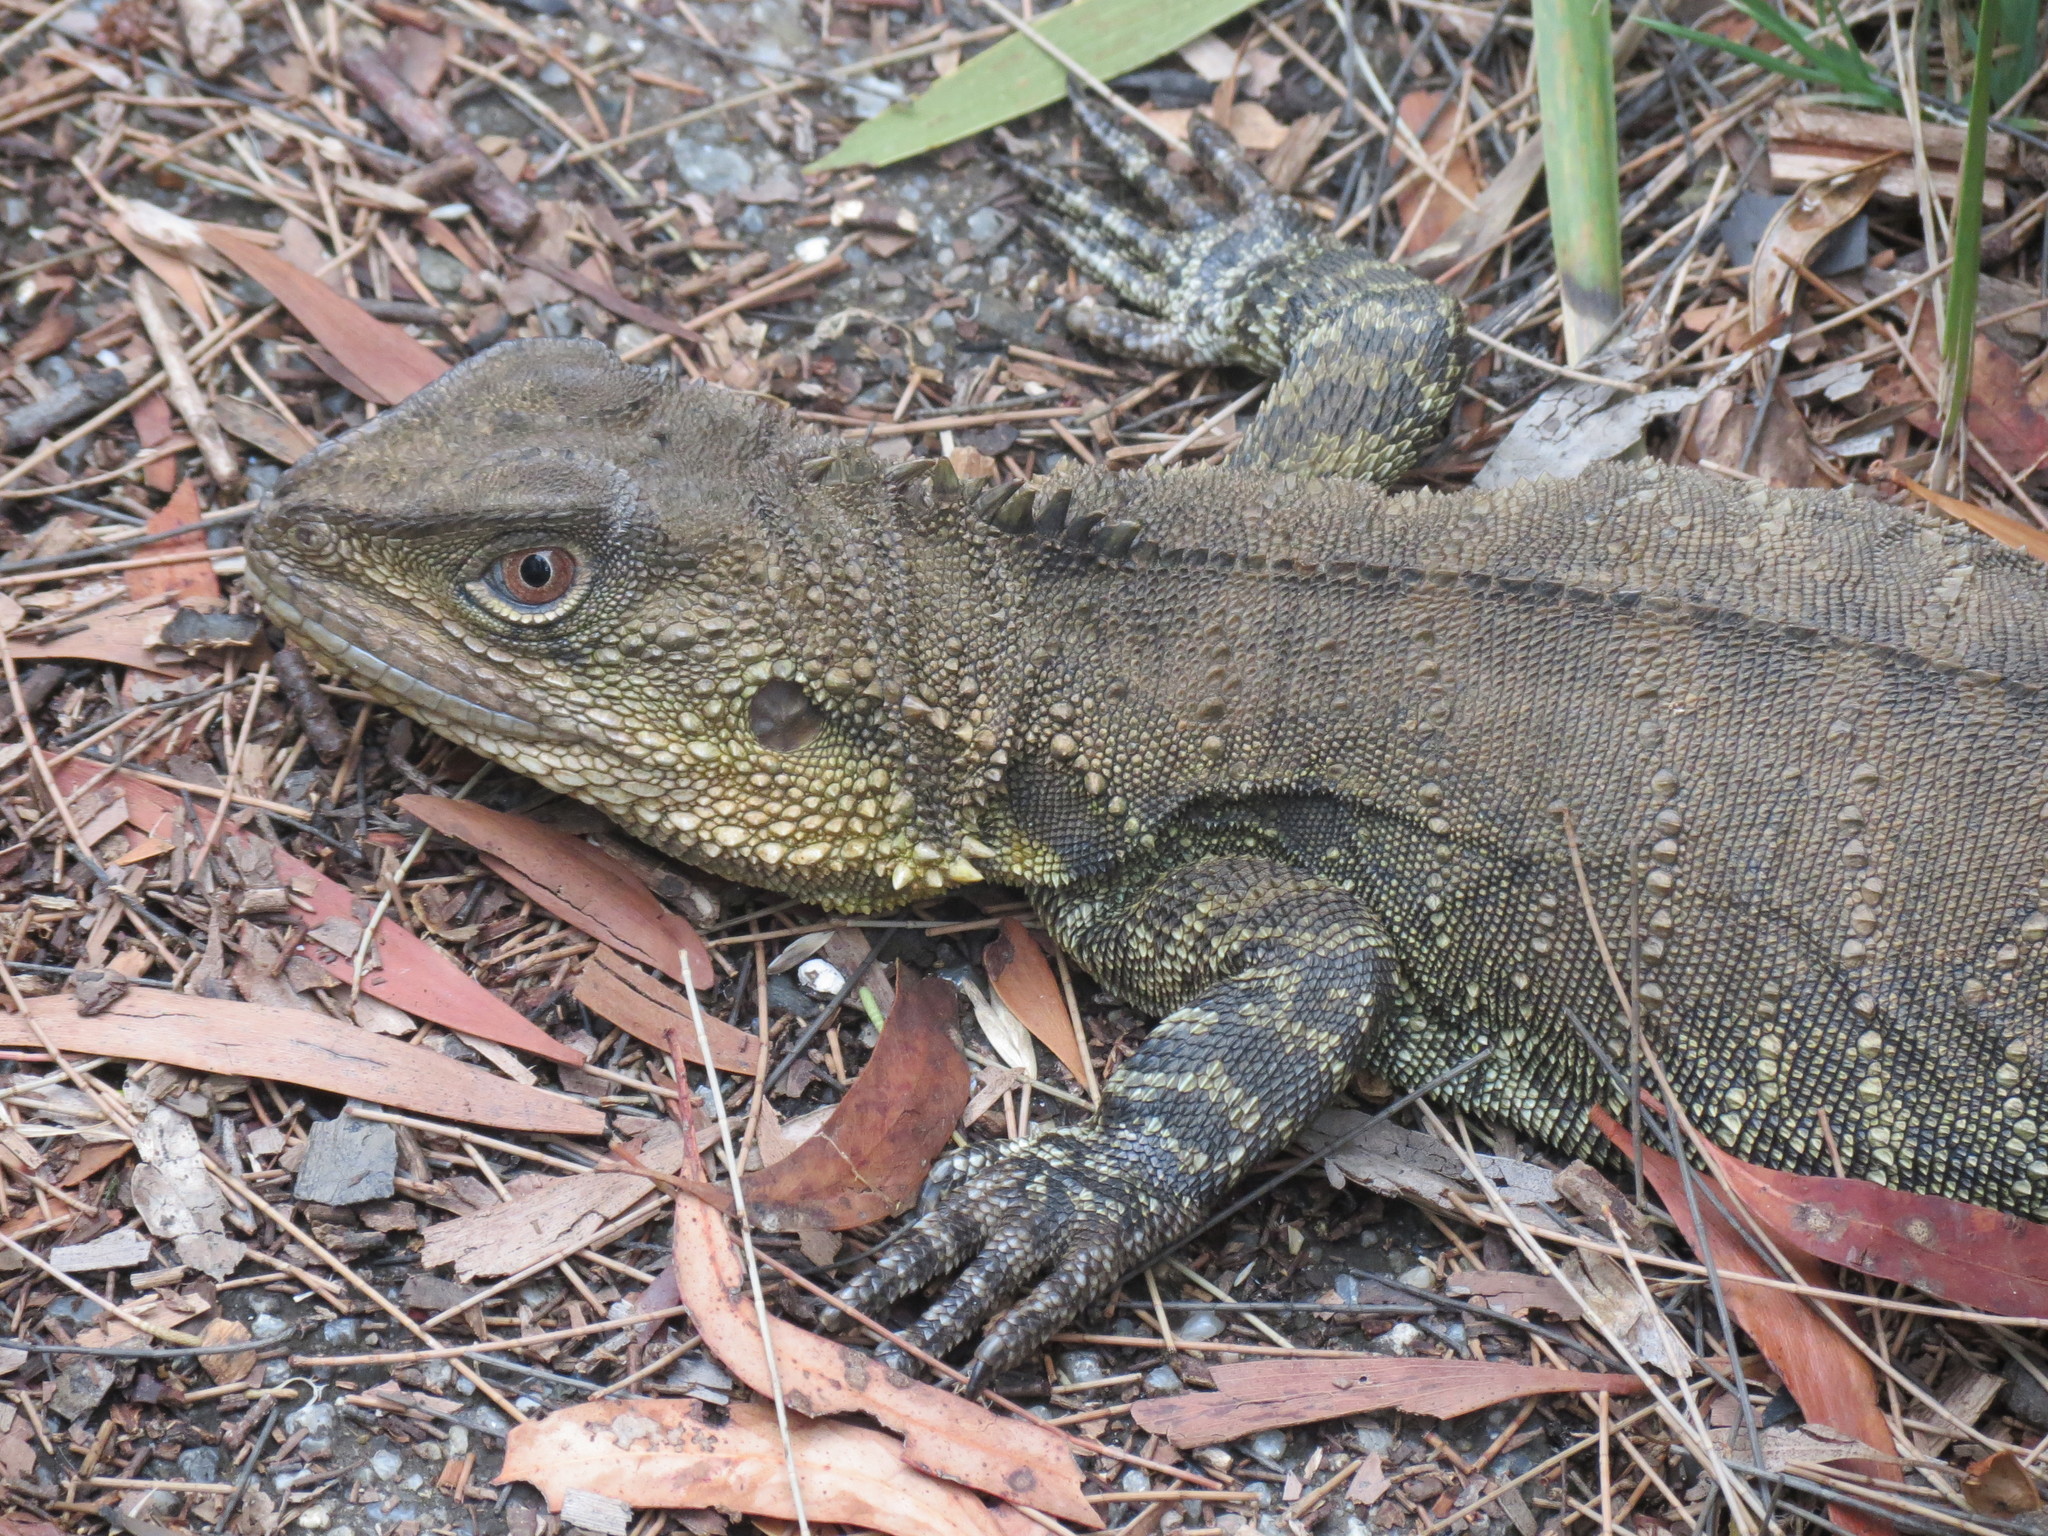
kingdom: Animalia
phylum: Chordata
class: Squamata
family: Agamidae
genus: Intellagama
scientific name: Intellagama lesueurii
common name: Eastern water dragon
